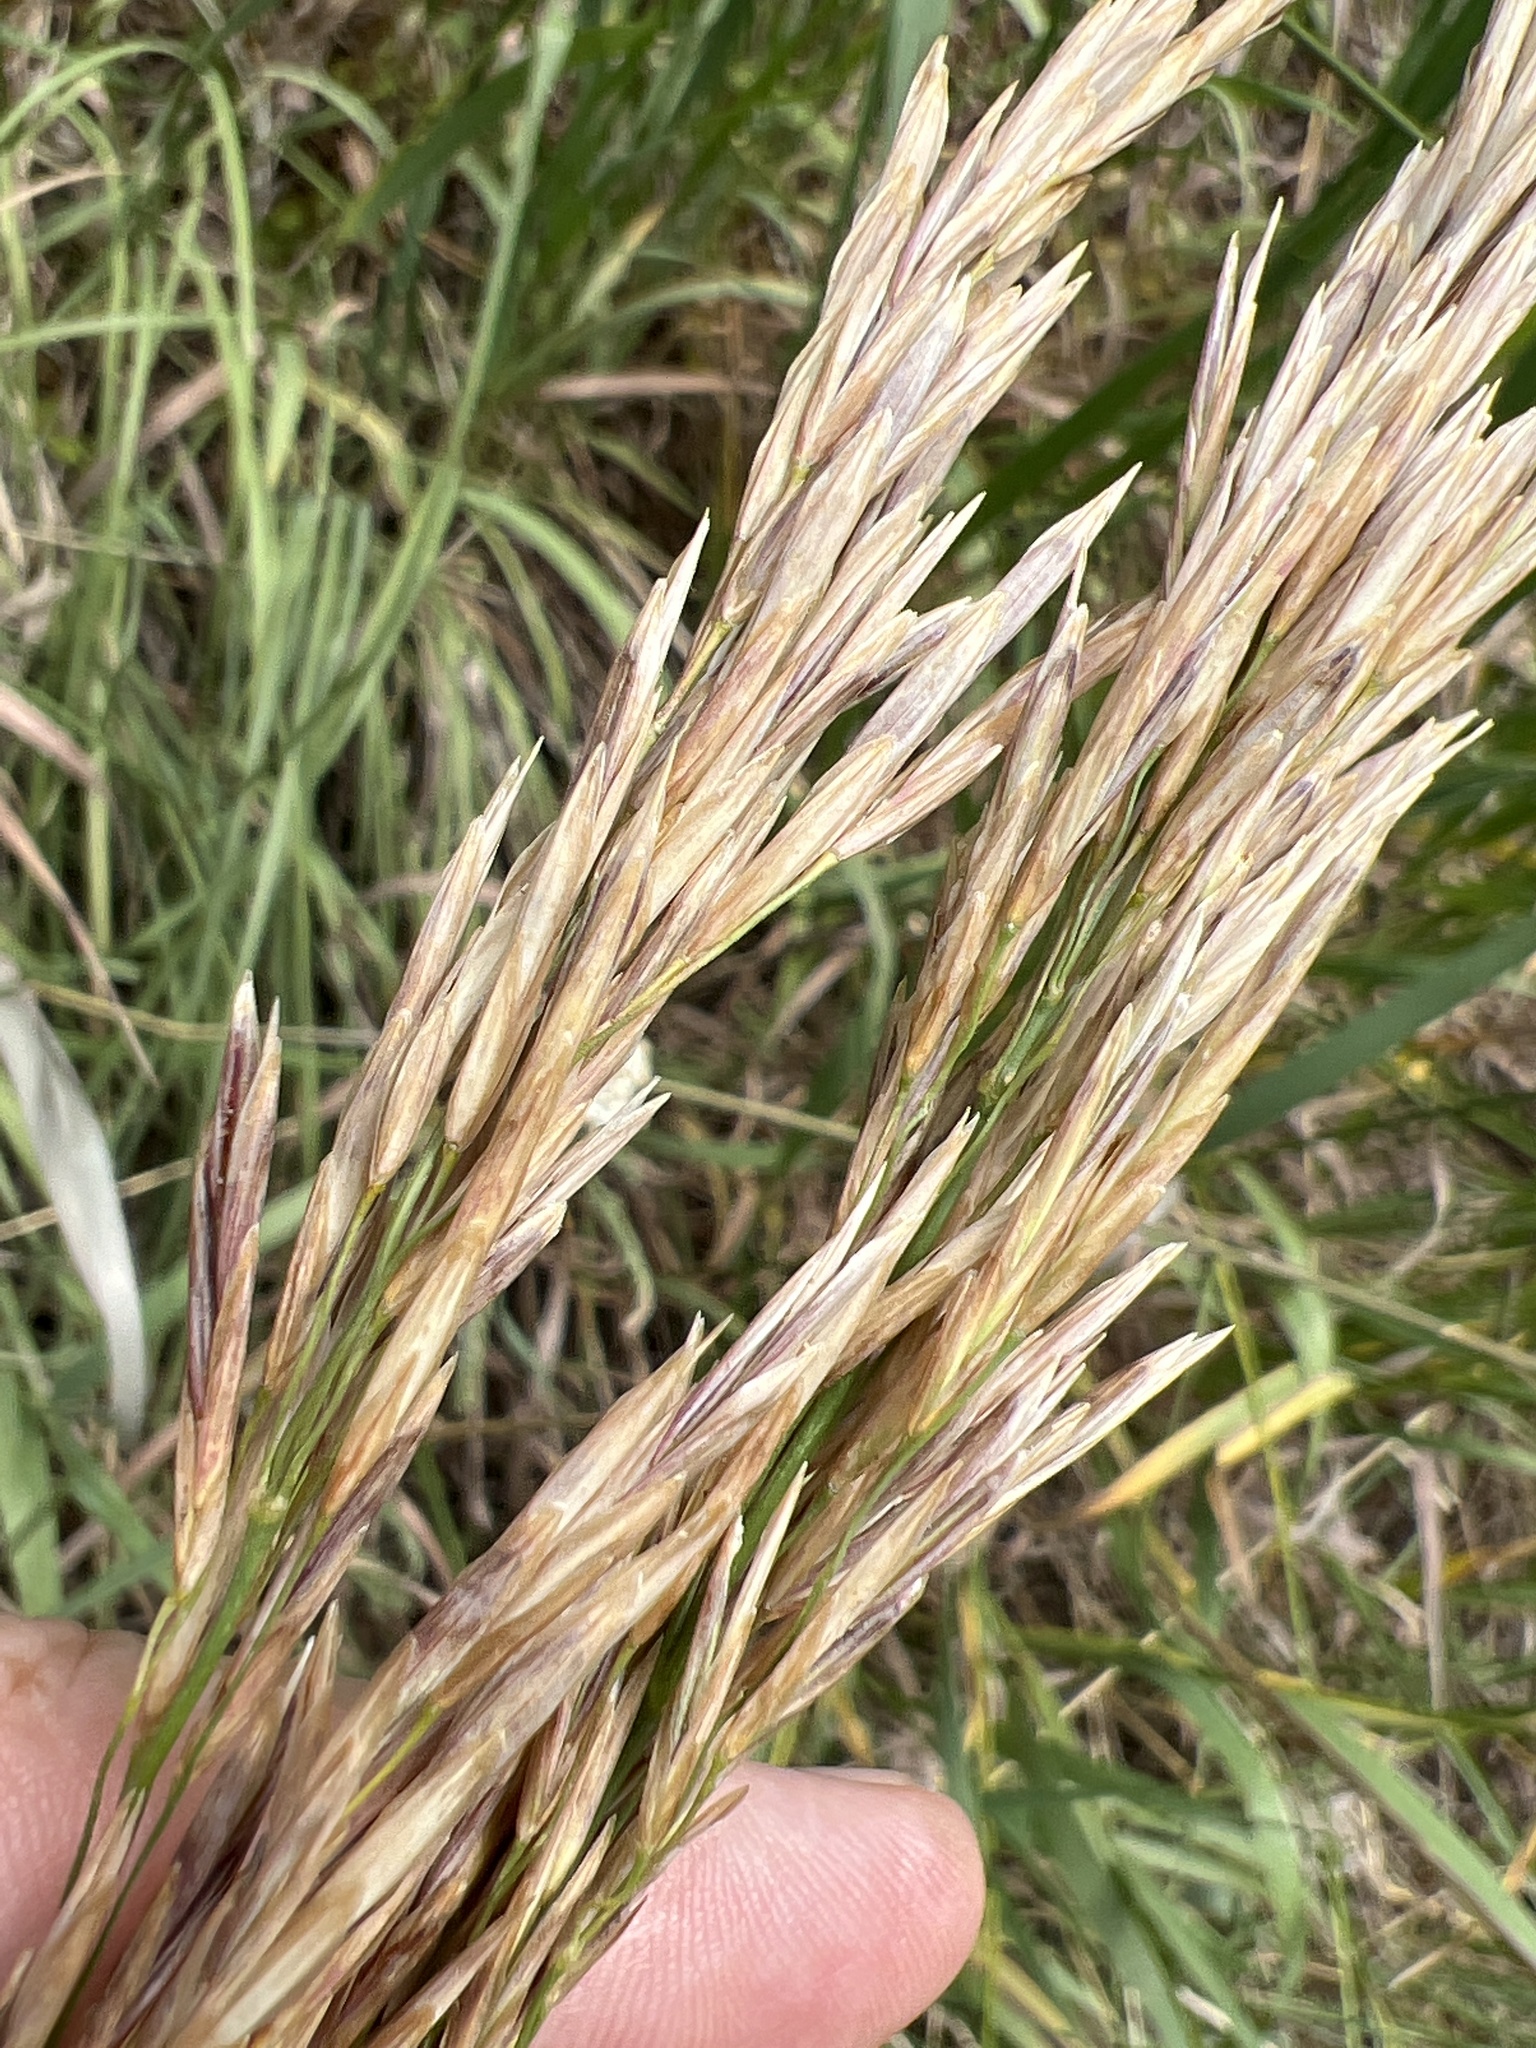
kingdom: Plantae
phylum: Tracheophyta
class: Liliopsida
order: Poales
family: Poaceae
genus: Bromus
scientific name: Bromus inermis
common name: Smooth brome
